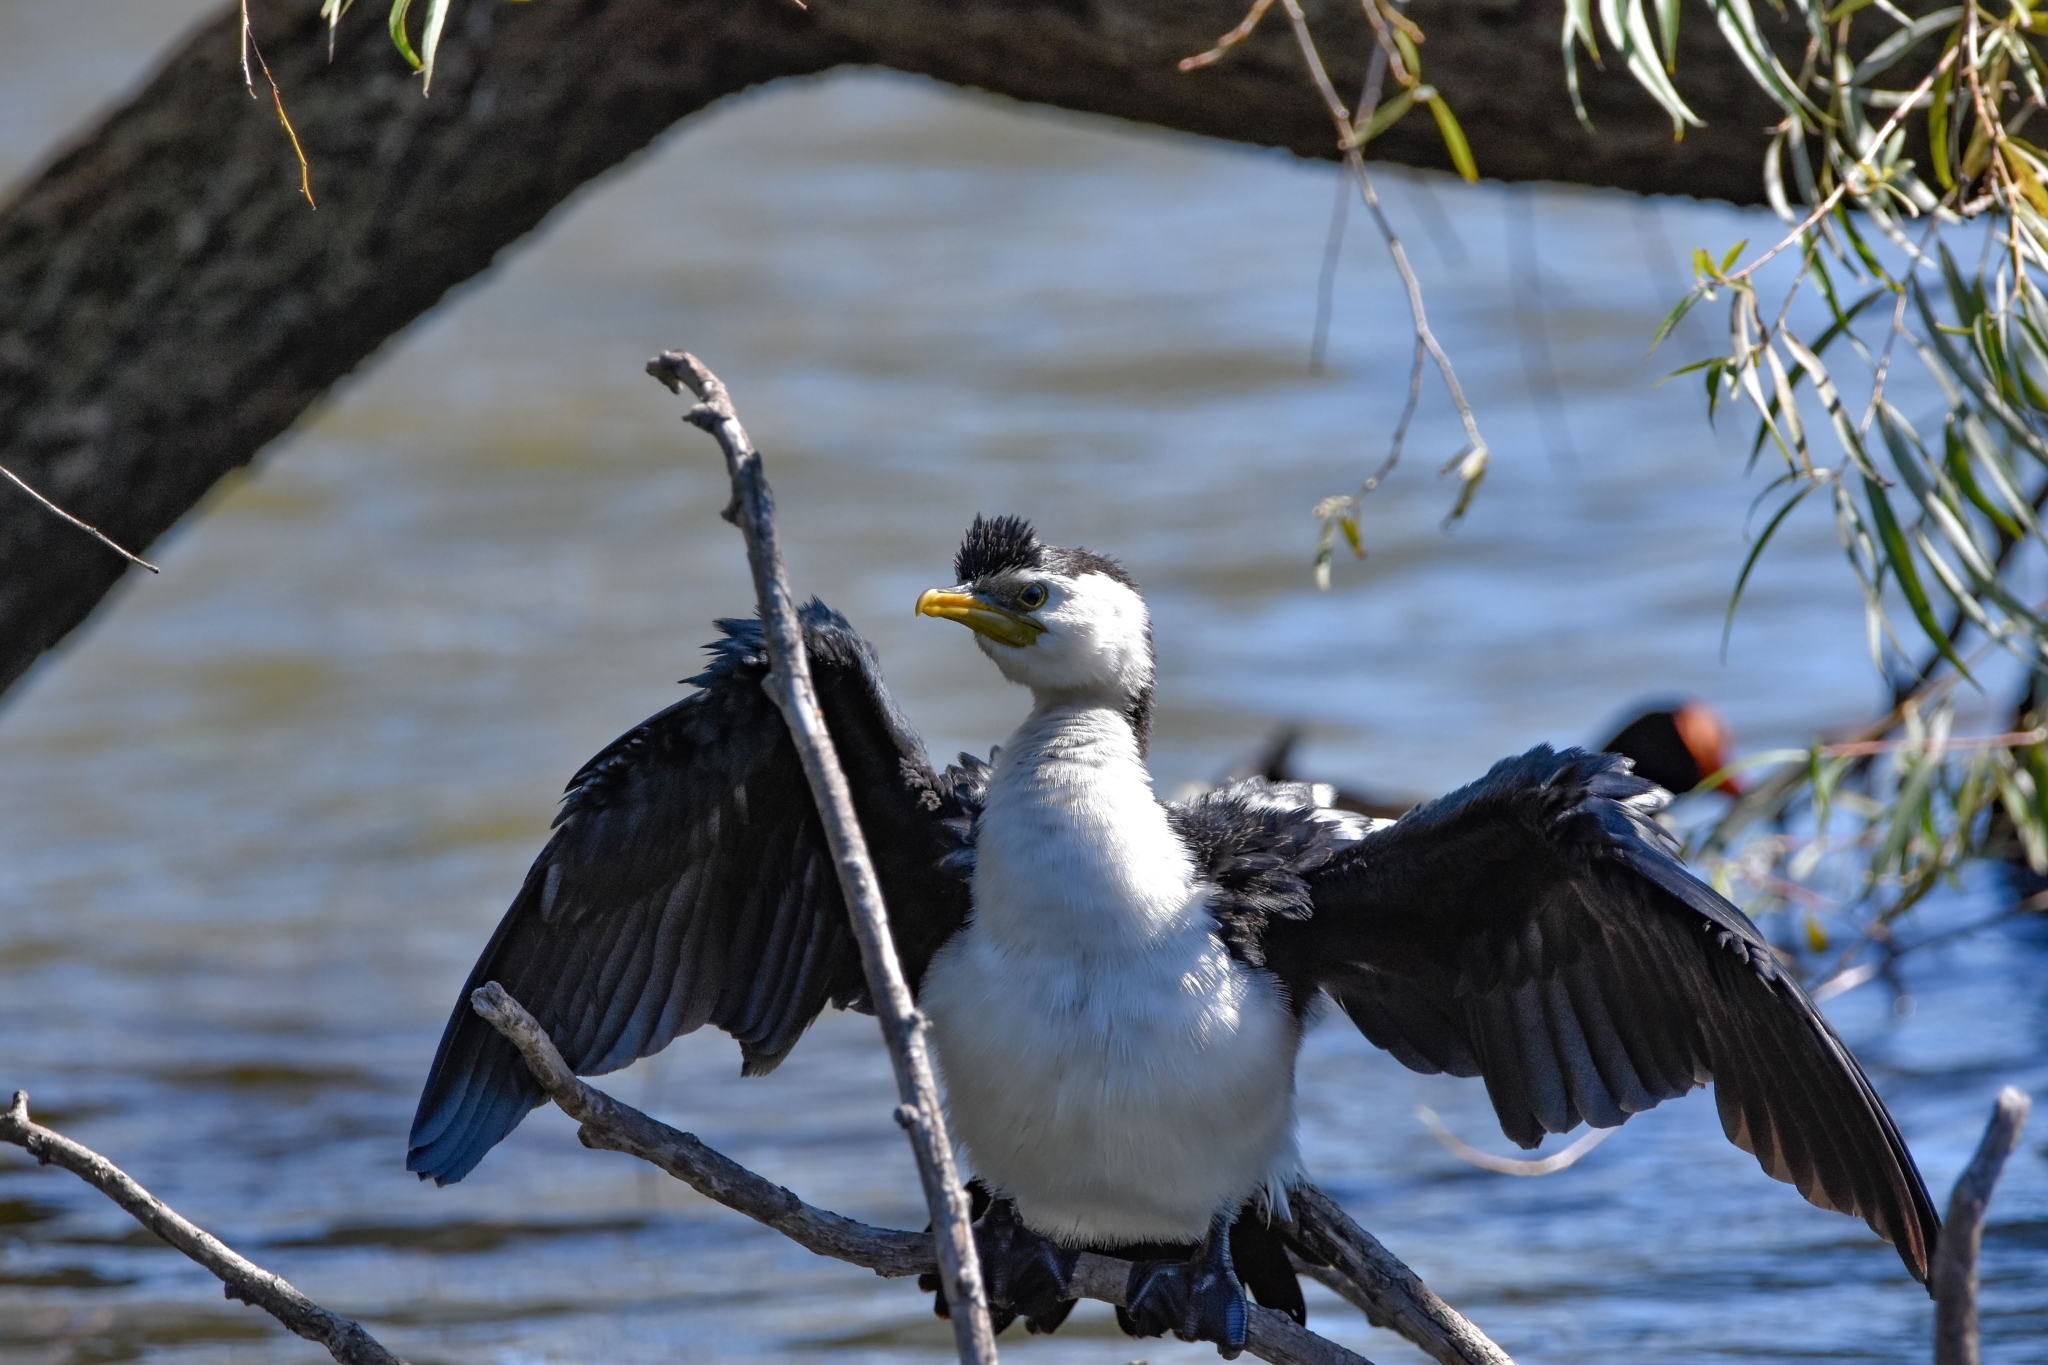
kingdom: Animalia
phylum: Chordata
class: Aves
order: Suliformes
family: Phalacrocoracidae
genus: Microcarbo
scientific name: Microcarbo melanoleucos
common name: Little pied cormorant
